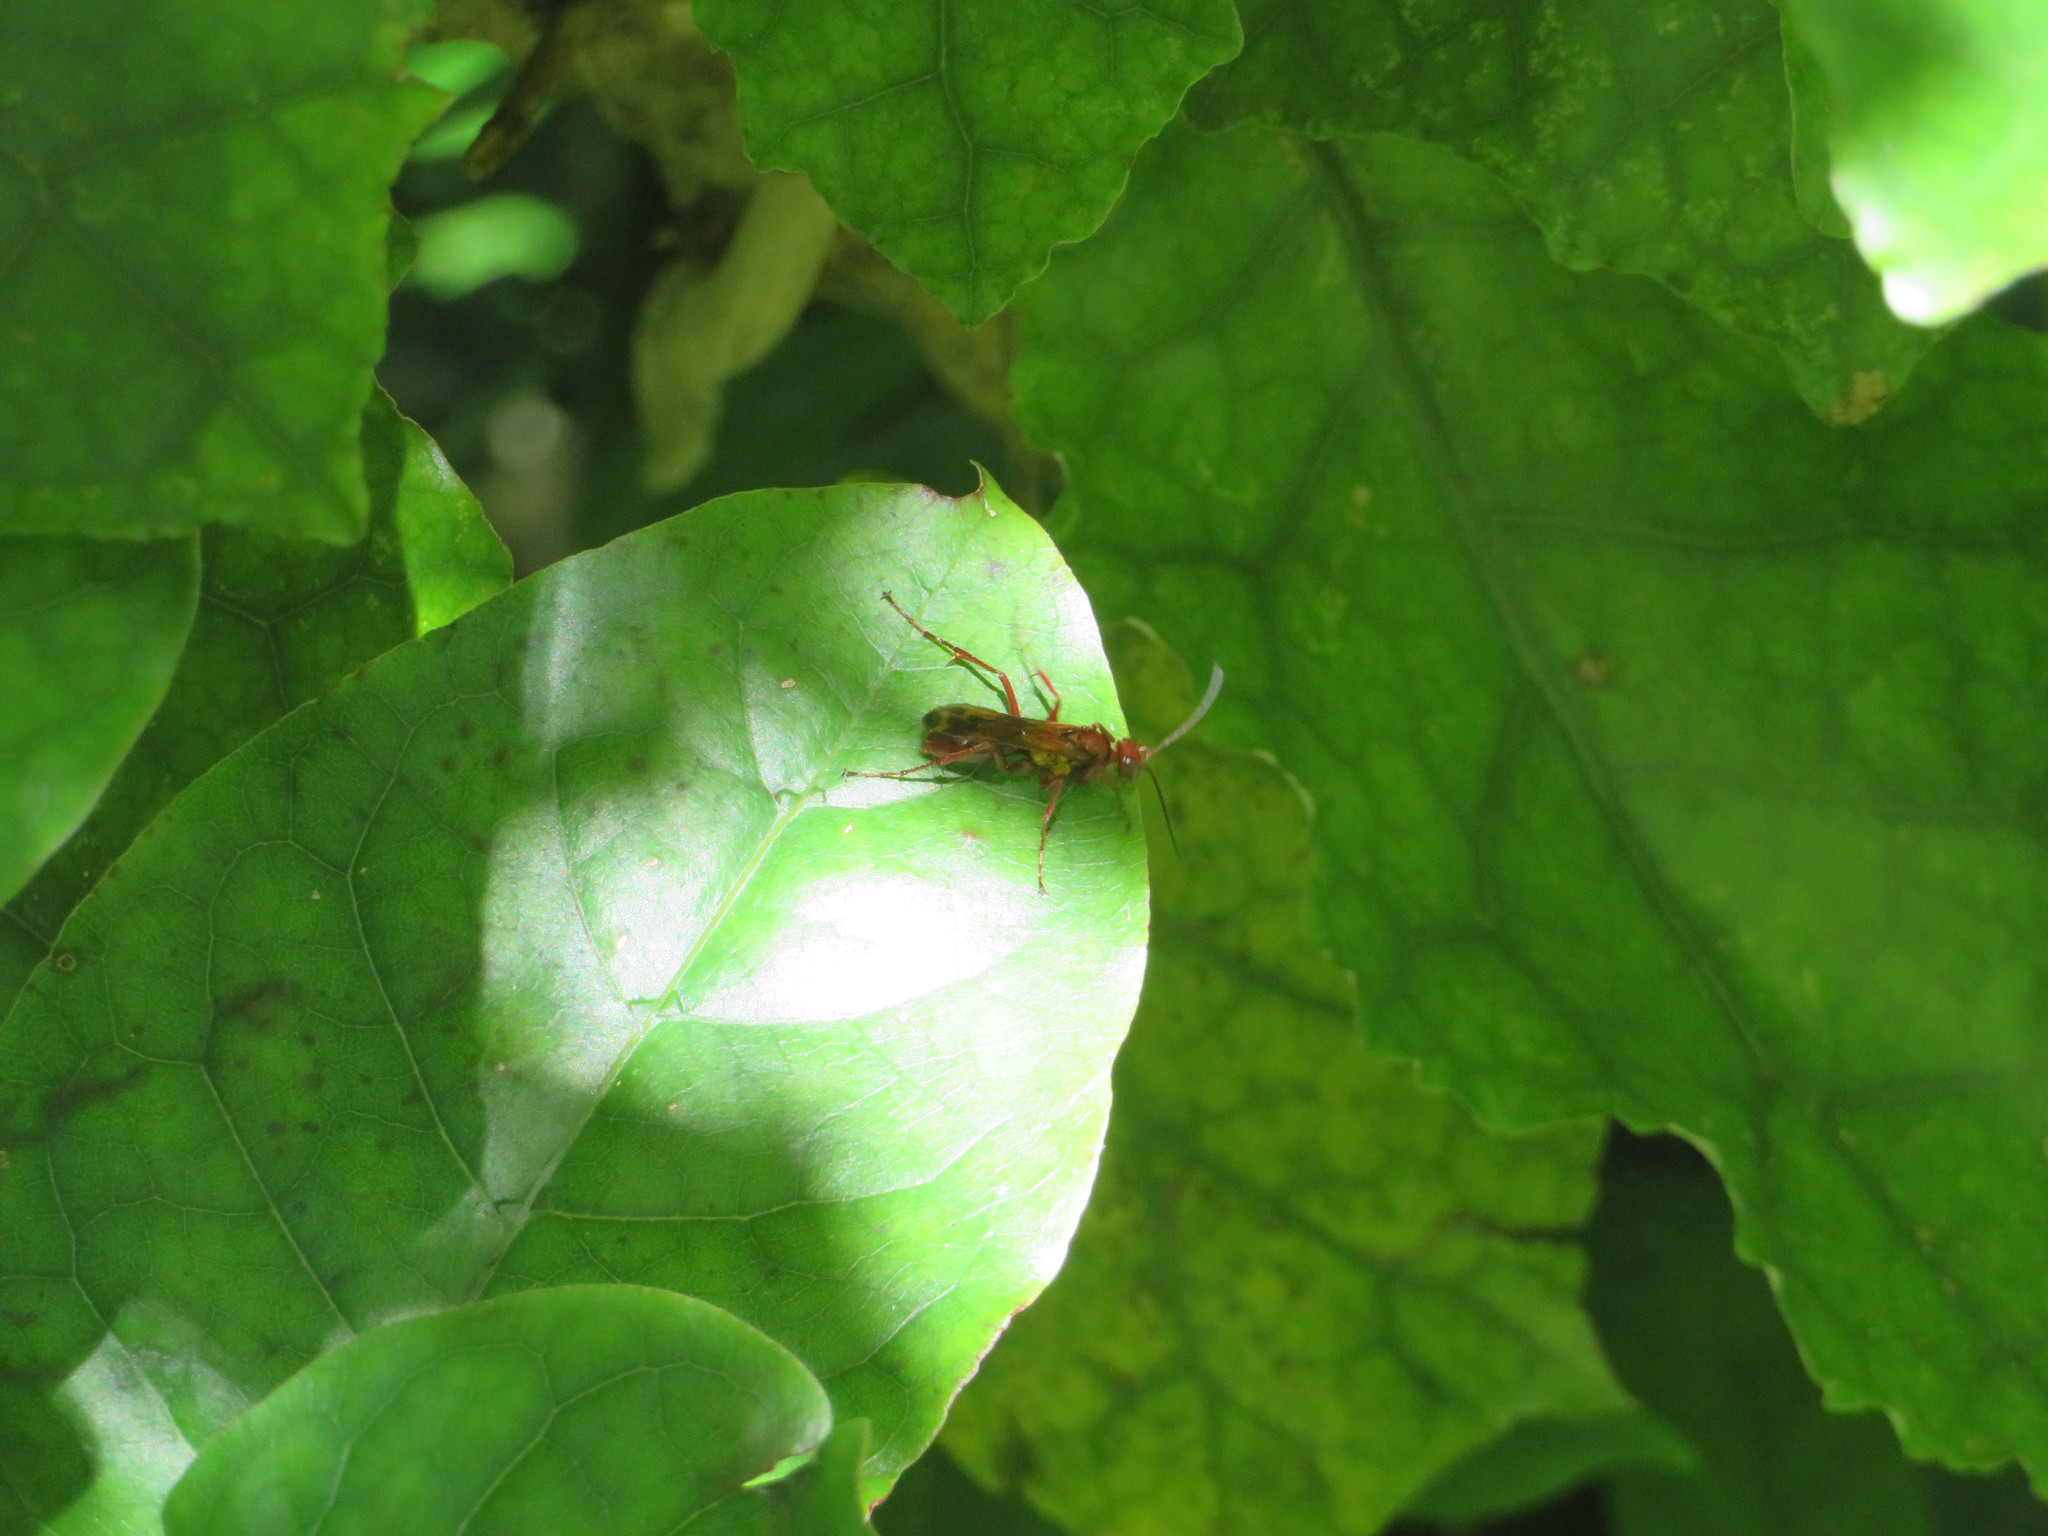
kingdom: Animalia
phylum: Arthropoda
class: Insecta
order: Hymenoptera
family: Pompilidae
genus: Sphictostethus
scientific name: Sphictostethus nitidus
